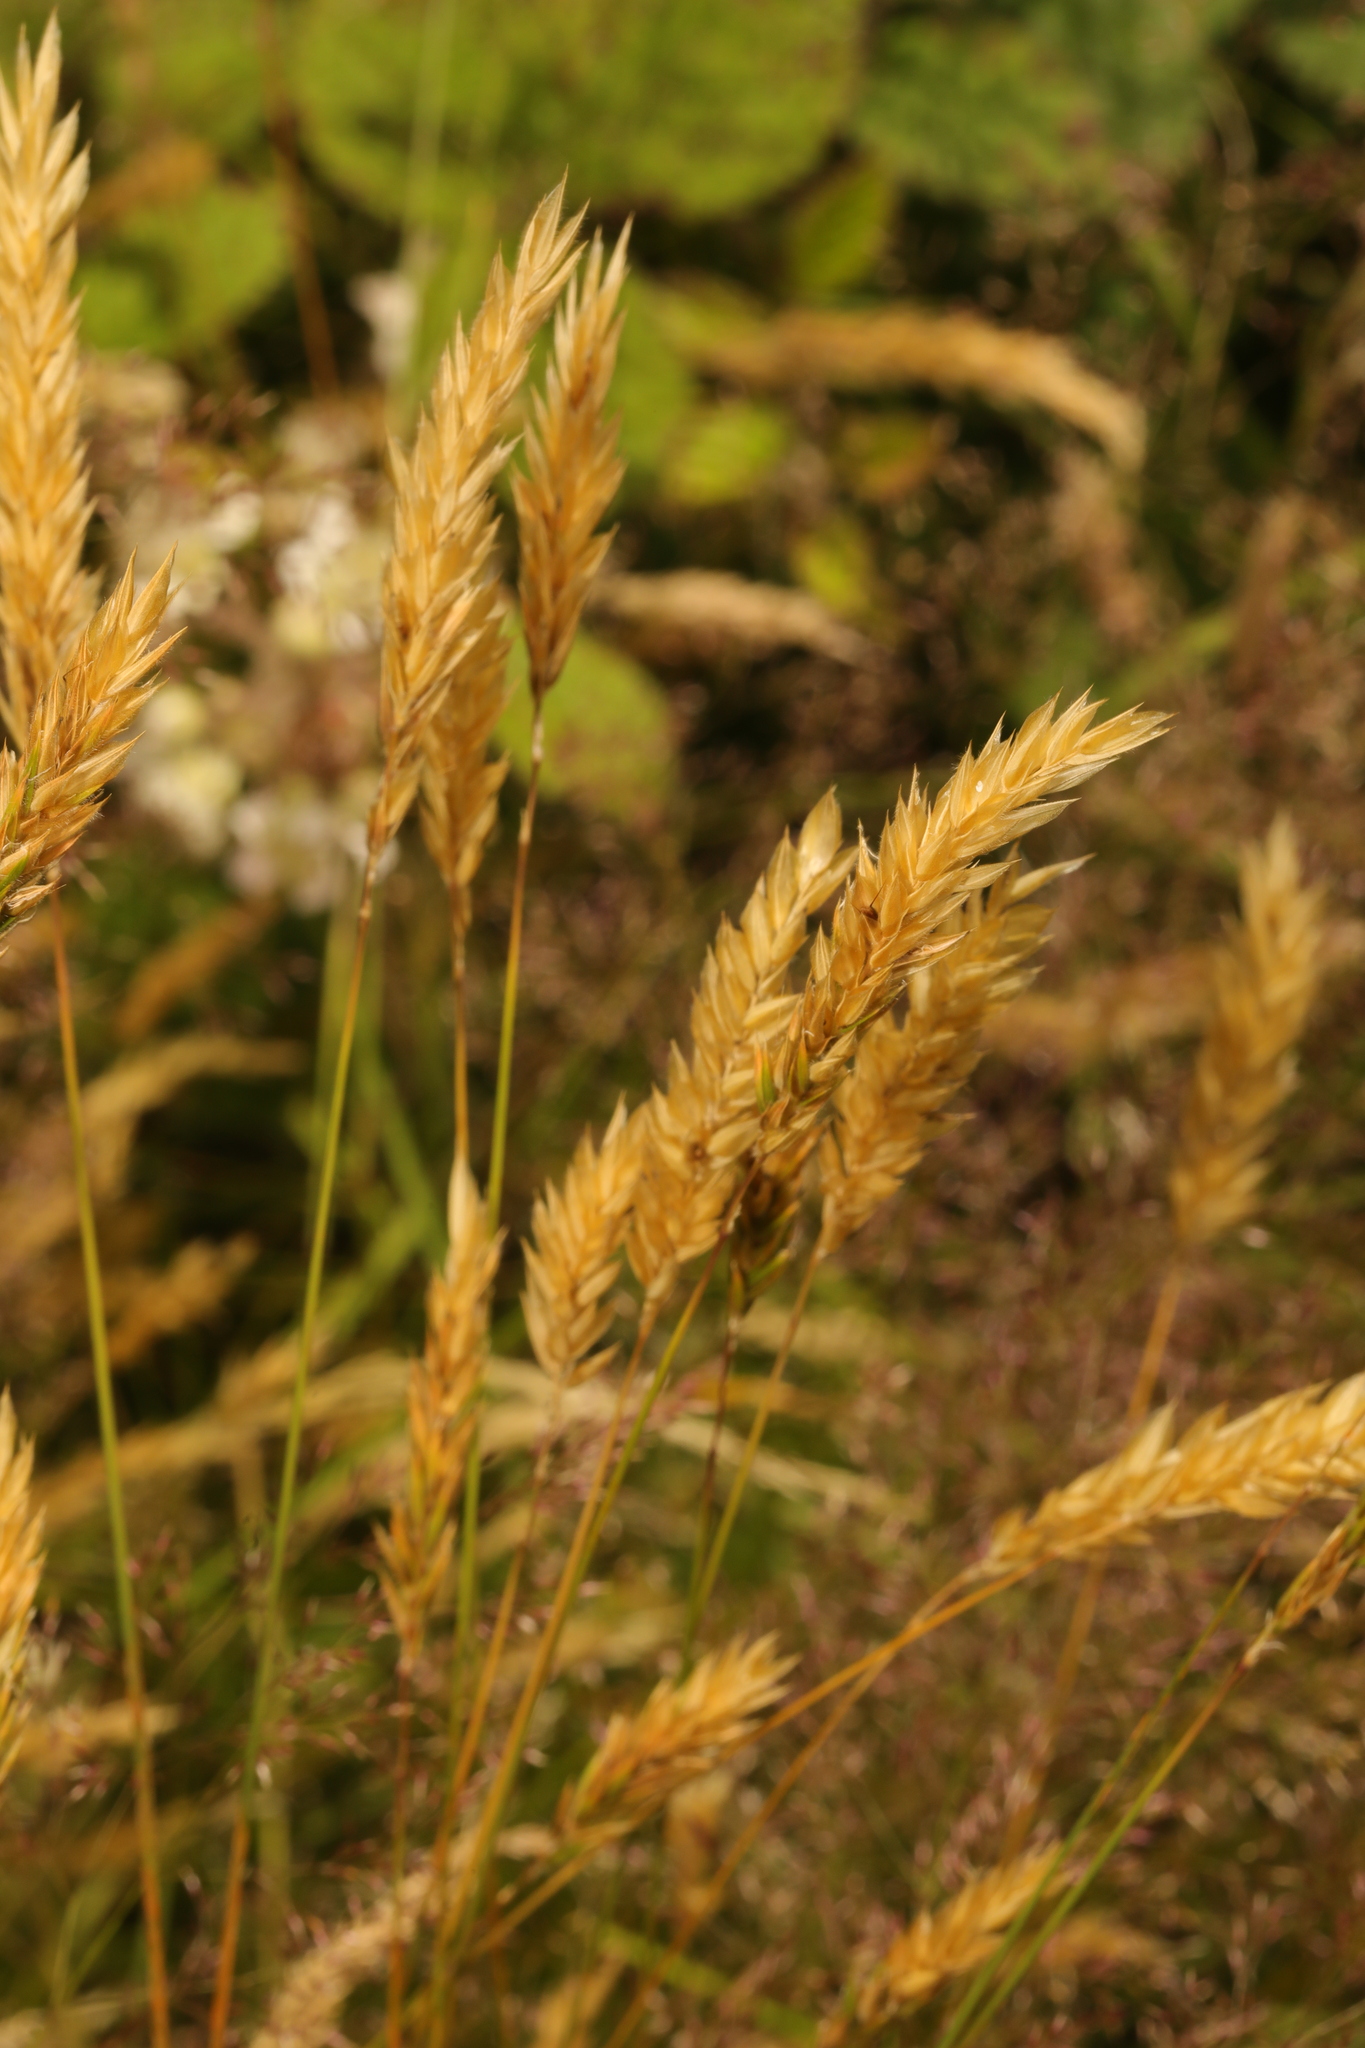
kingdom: Plantae
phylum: Tracheophyta
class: Liliopsida
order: Poales
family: Poaceae
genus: Anthoxanthum
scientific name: Anthoxanthum odoratum
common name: Sweet vernalgrass
